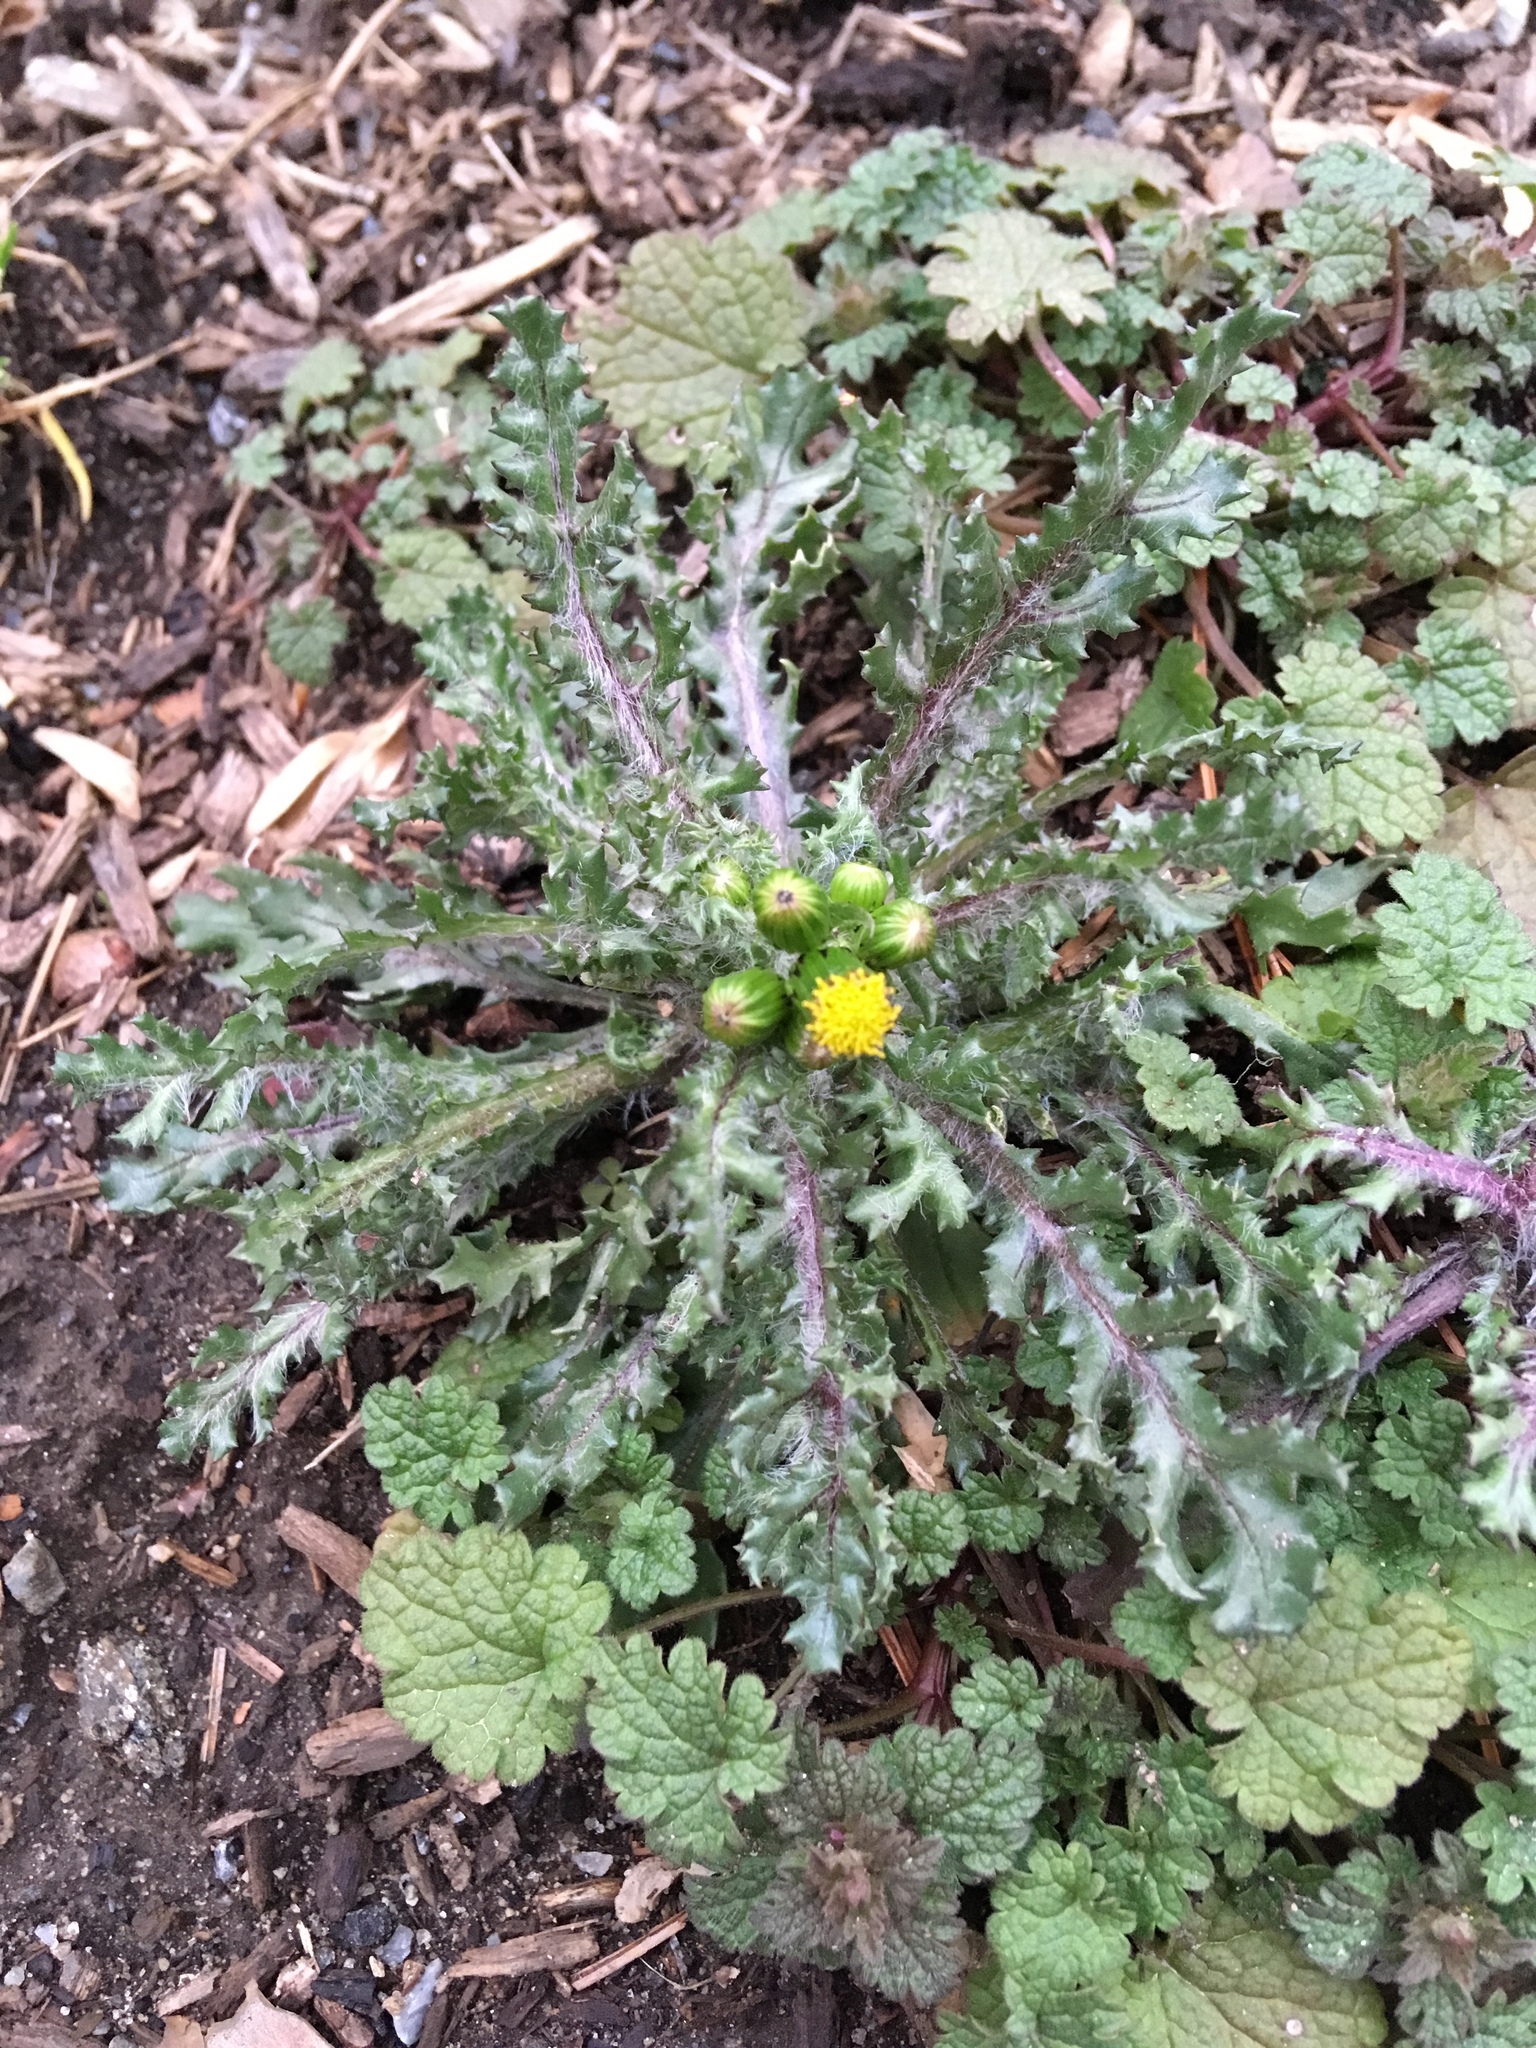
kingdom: Plantae
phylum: Tracheophyta
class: Magnoliopsida
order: Asterales
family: Asteraceae
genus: Senecio
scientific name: Senecio vulgaris
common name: Old-man-in-the-spring
